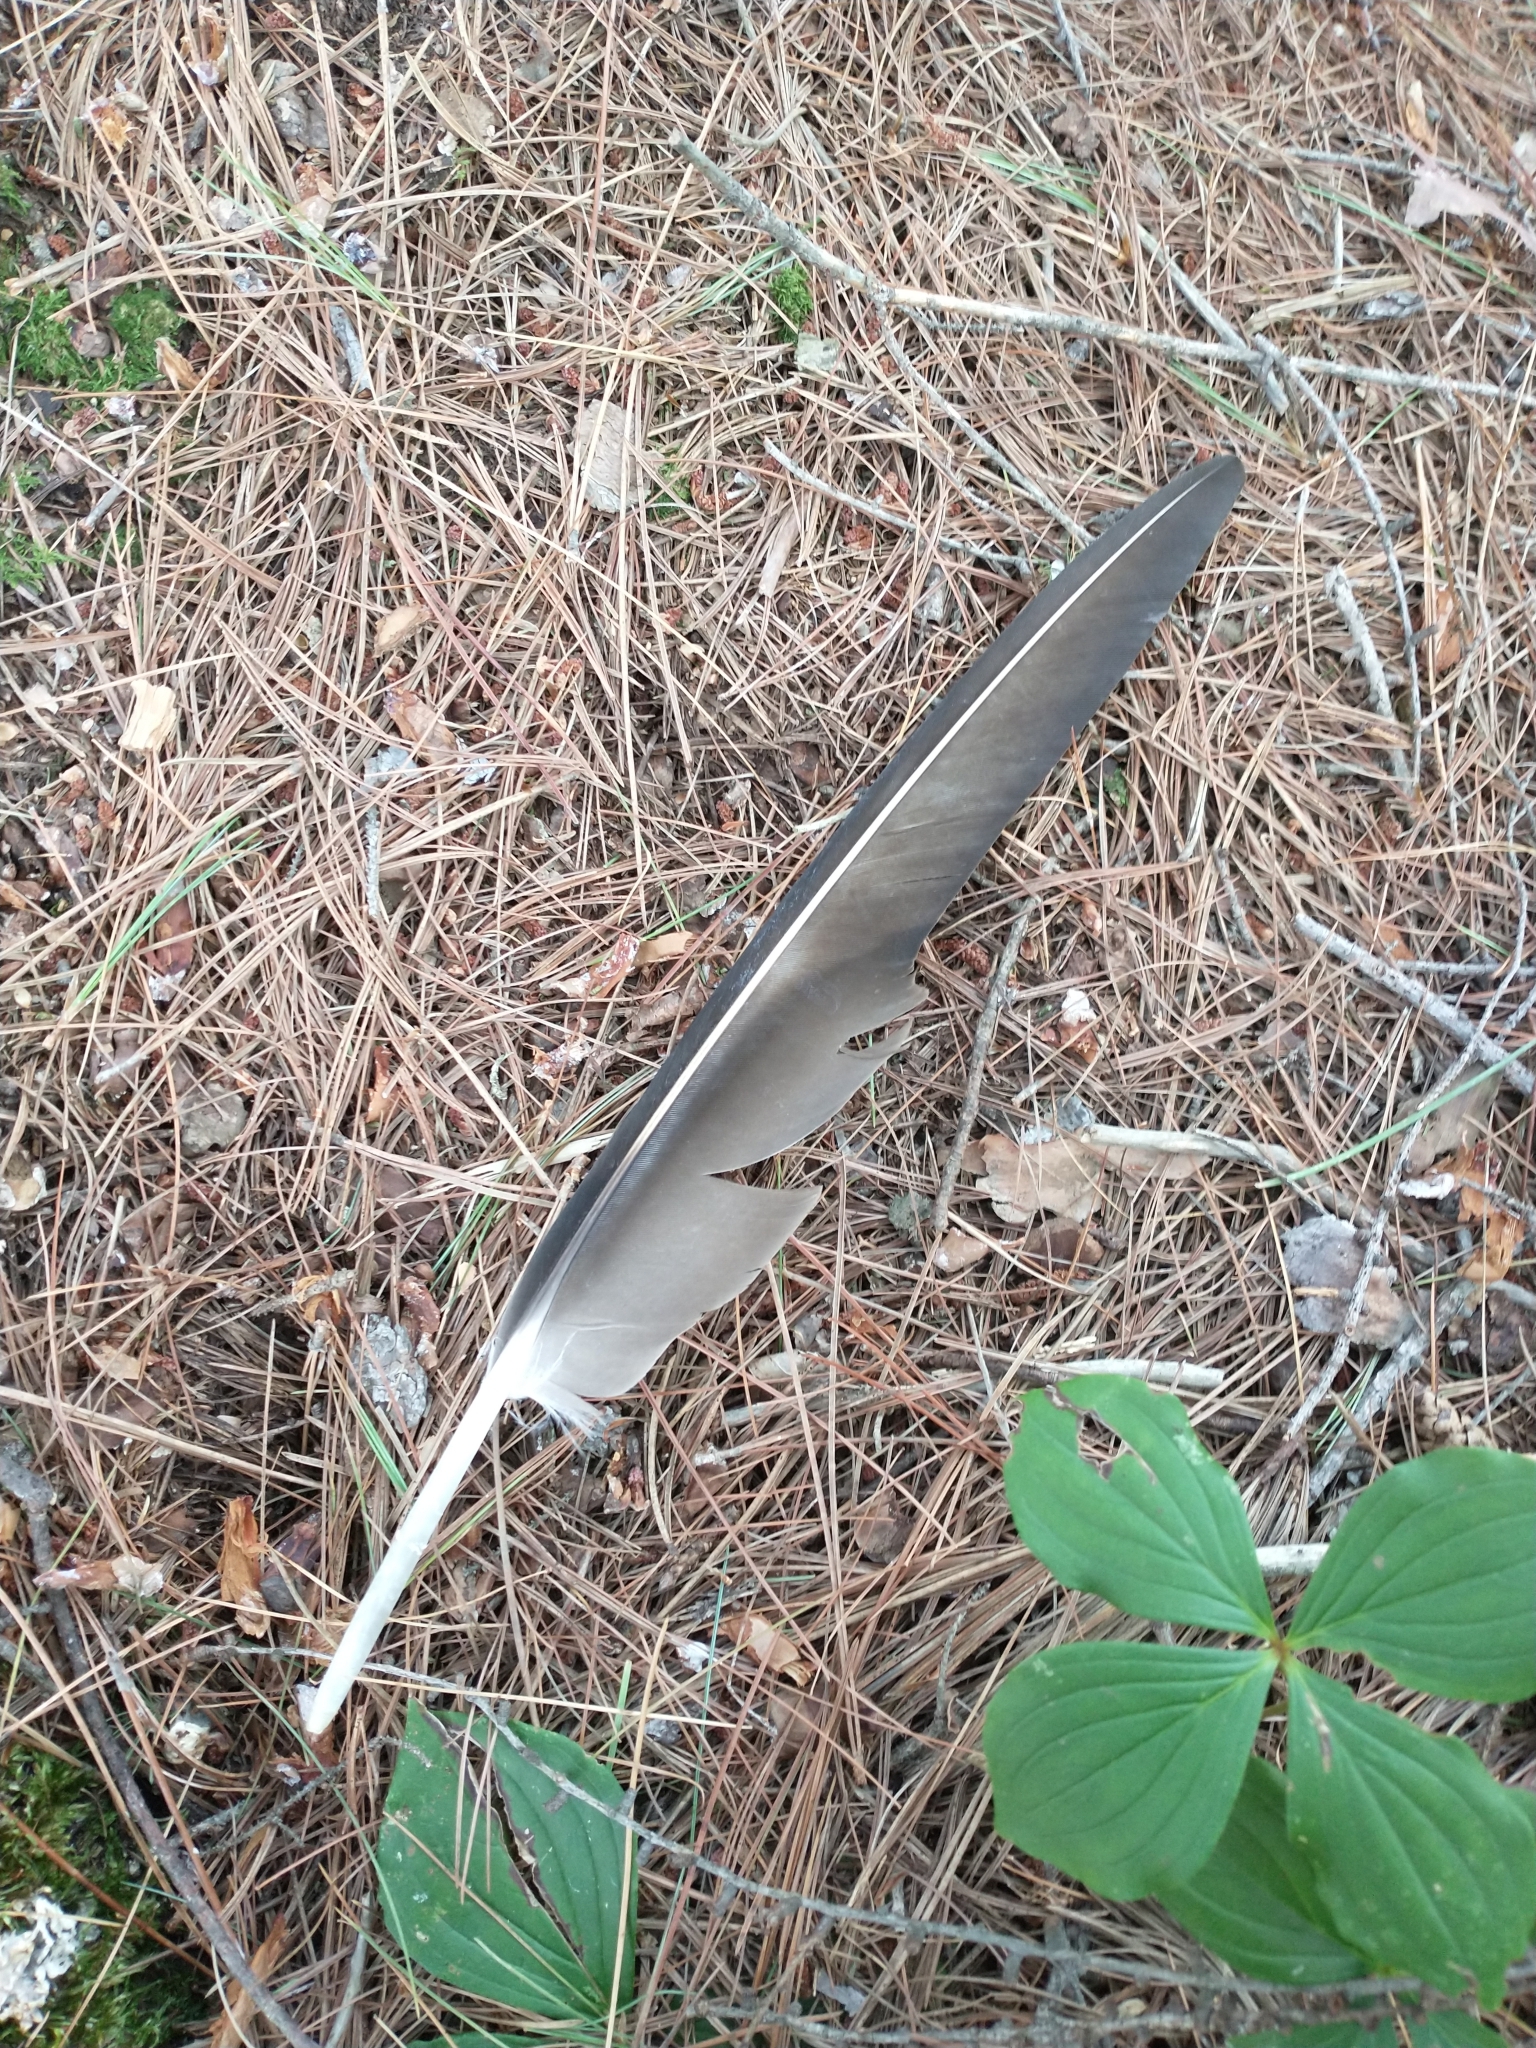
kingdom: Animalia
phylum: Chordata
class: Aves
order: Accipitriformes
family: Cathartidae
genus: Cathartes
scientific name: Cathartes aura
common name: Turkey vulture
